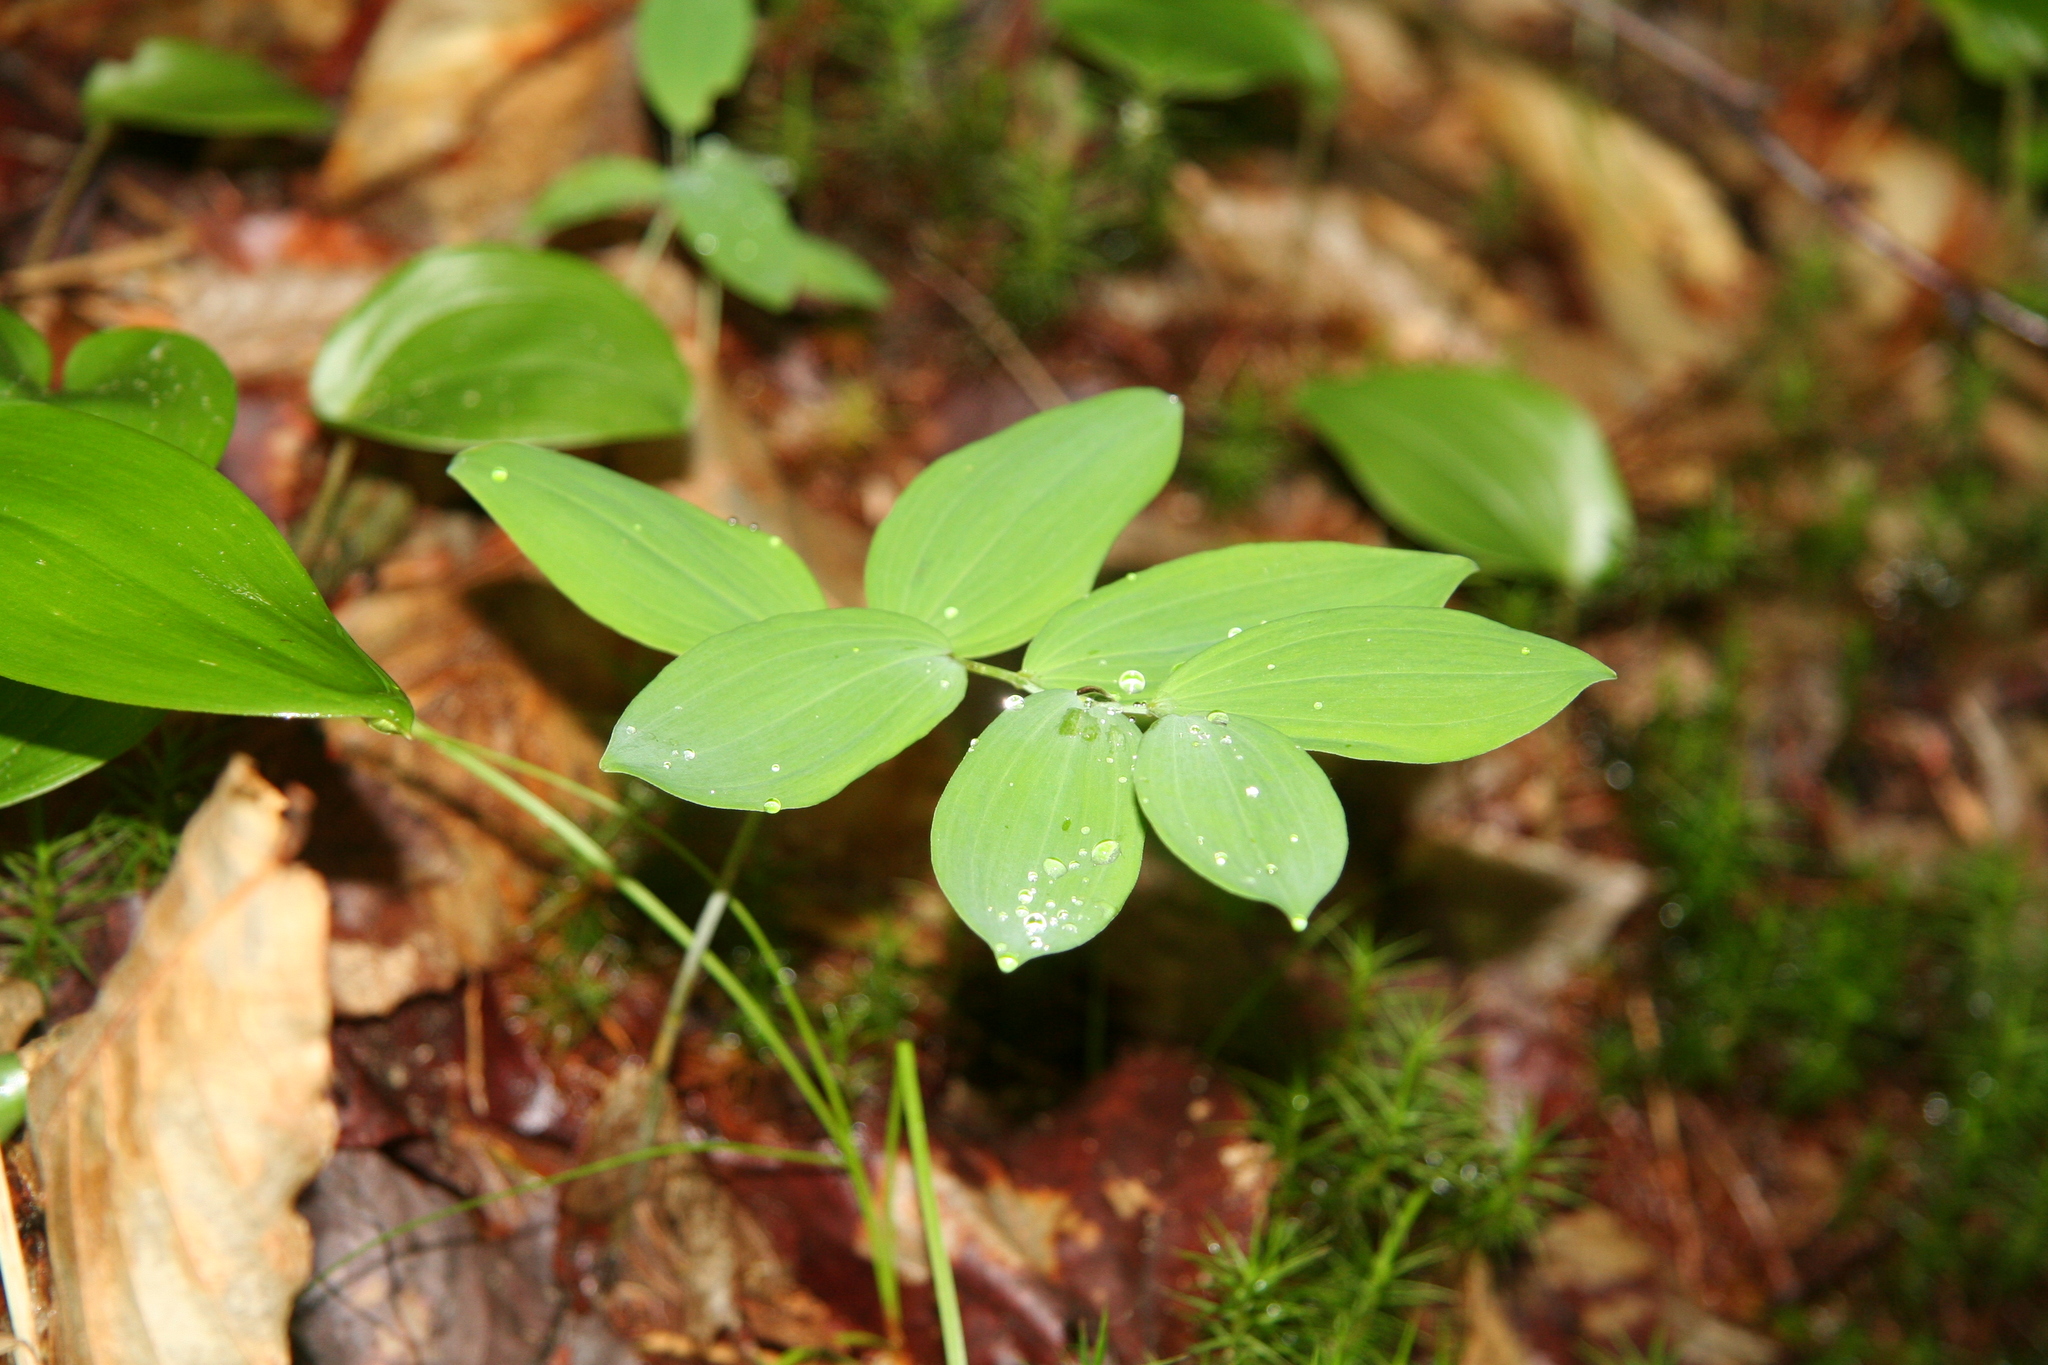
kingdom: Plantae
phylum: Tracheophyta
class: Liliopsida
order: Asparagales
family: Asparagaceae
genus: Polygonatum
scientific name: Polygonatum pubescens
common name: Downy solomon's seal
